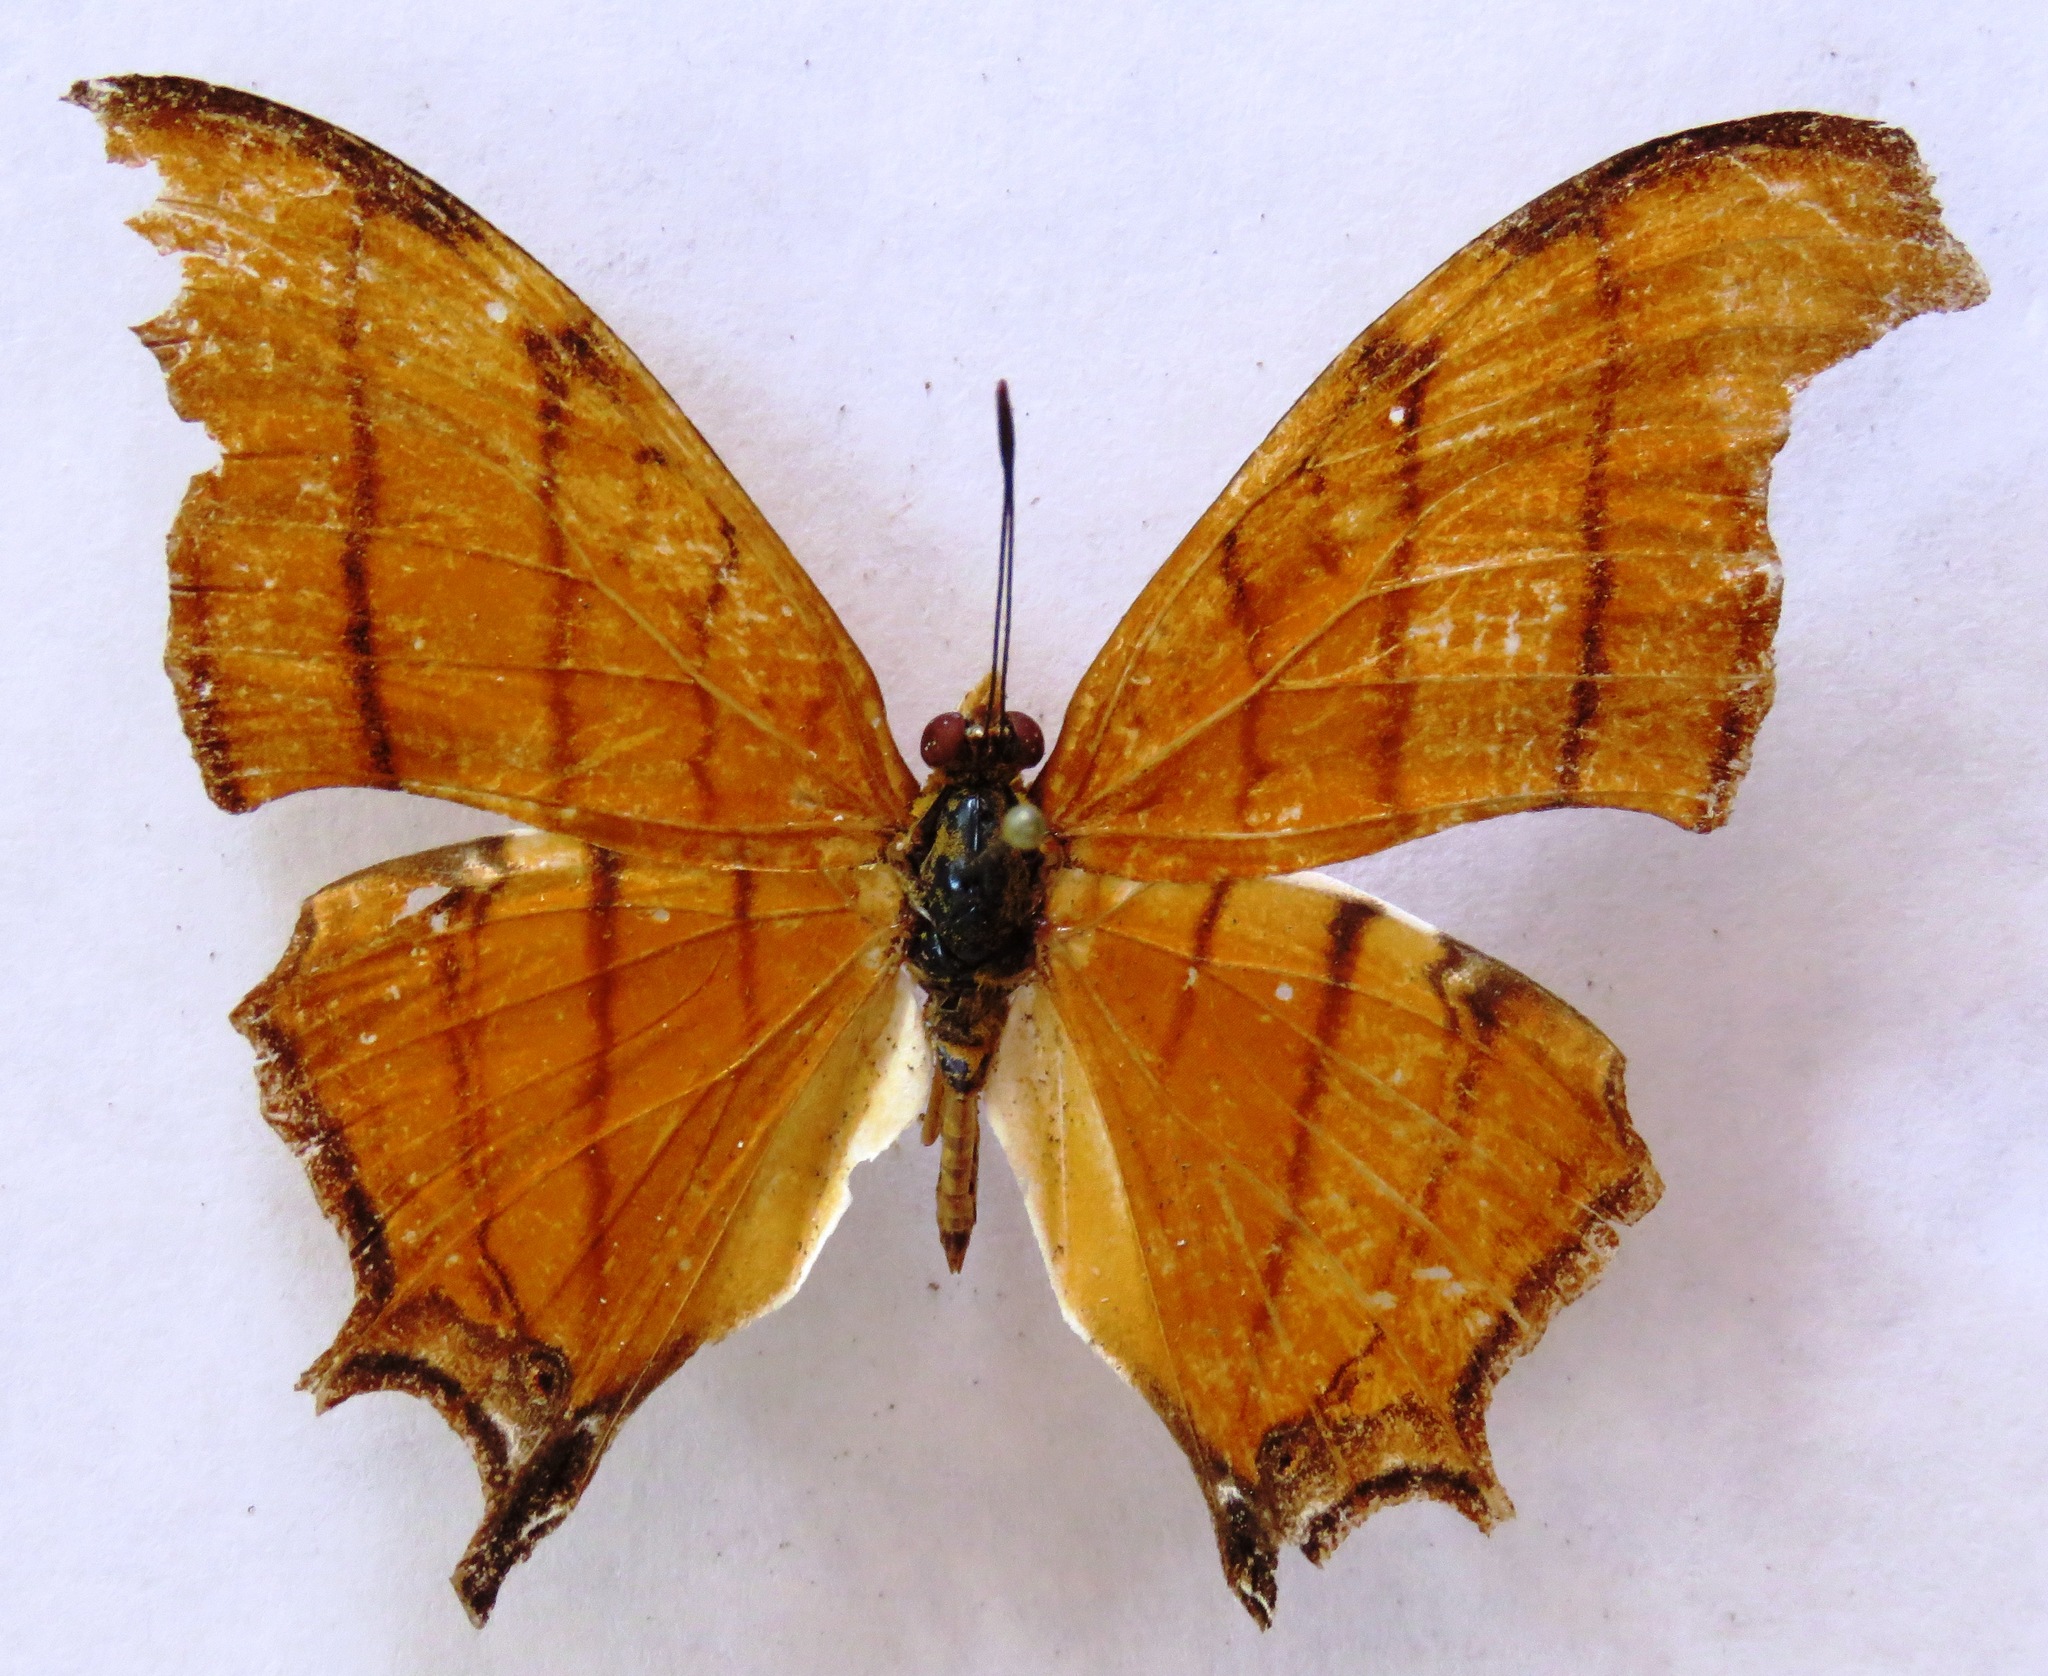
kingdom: Animalia
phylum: Arthropoda
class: Insecta
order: Lepidoptera
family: Nymphalidae
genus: Marpesia
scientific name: Marpesia petreus
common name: Red dagger wing
